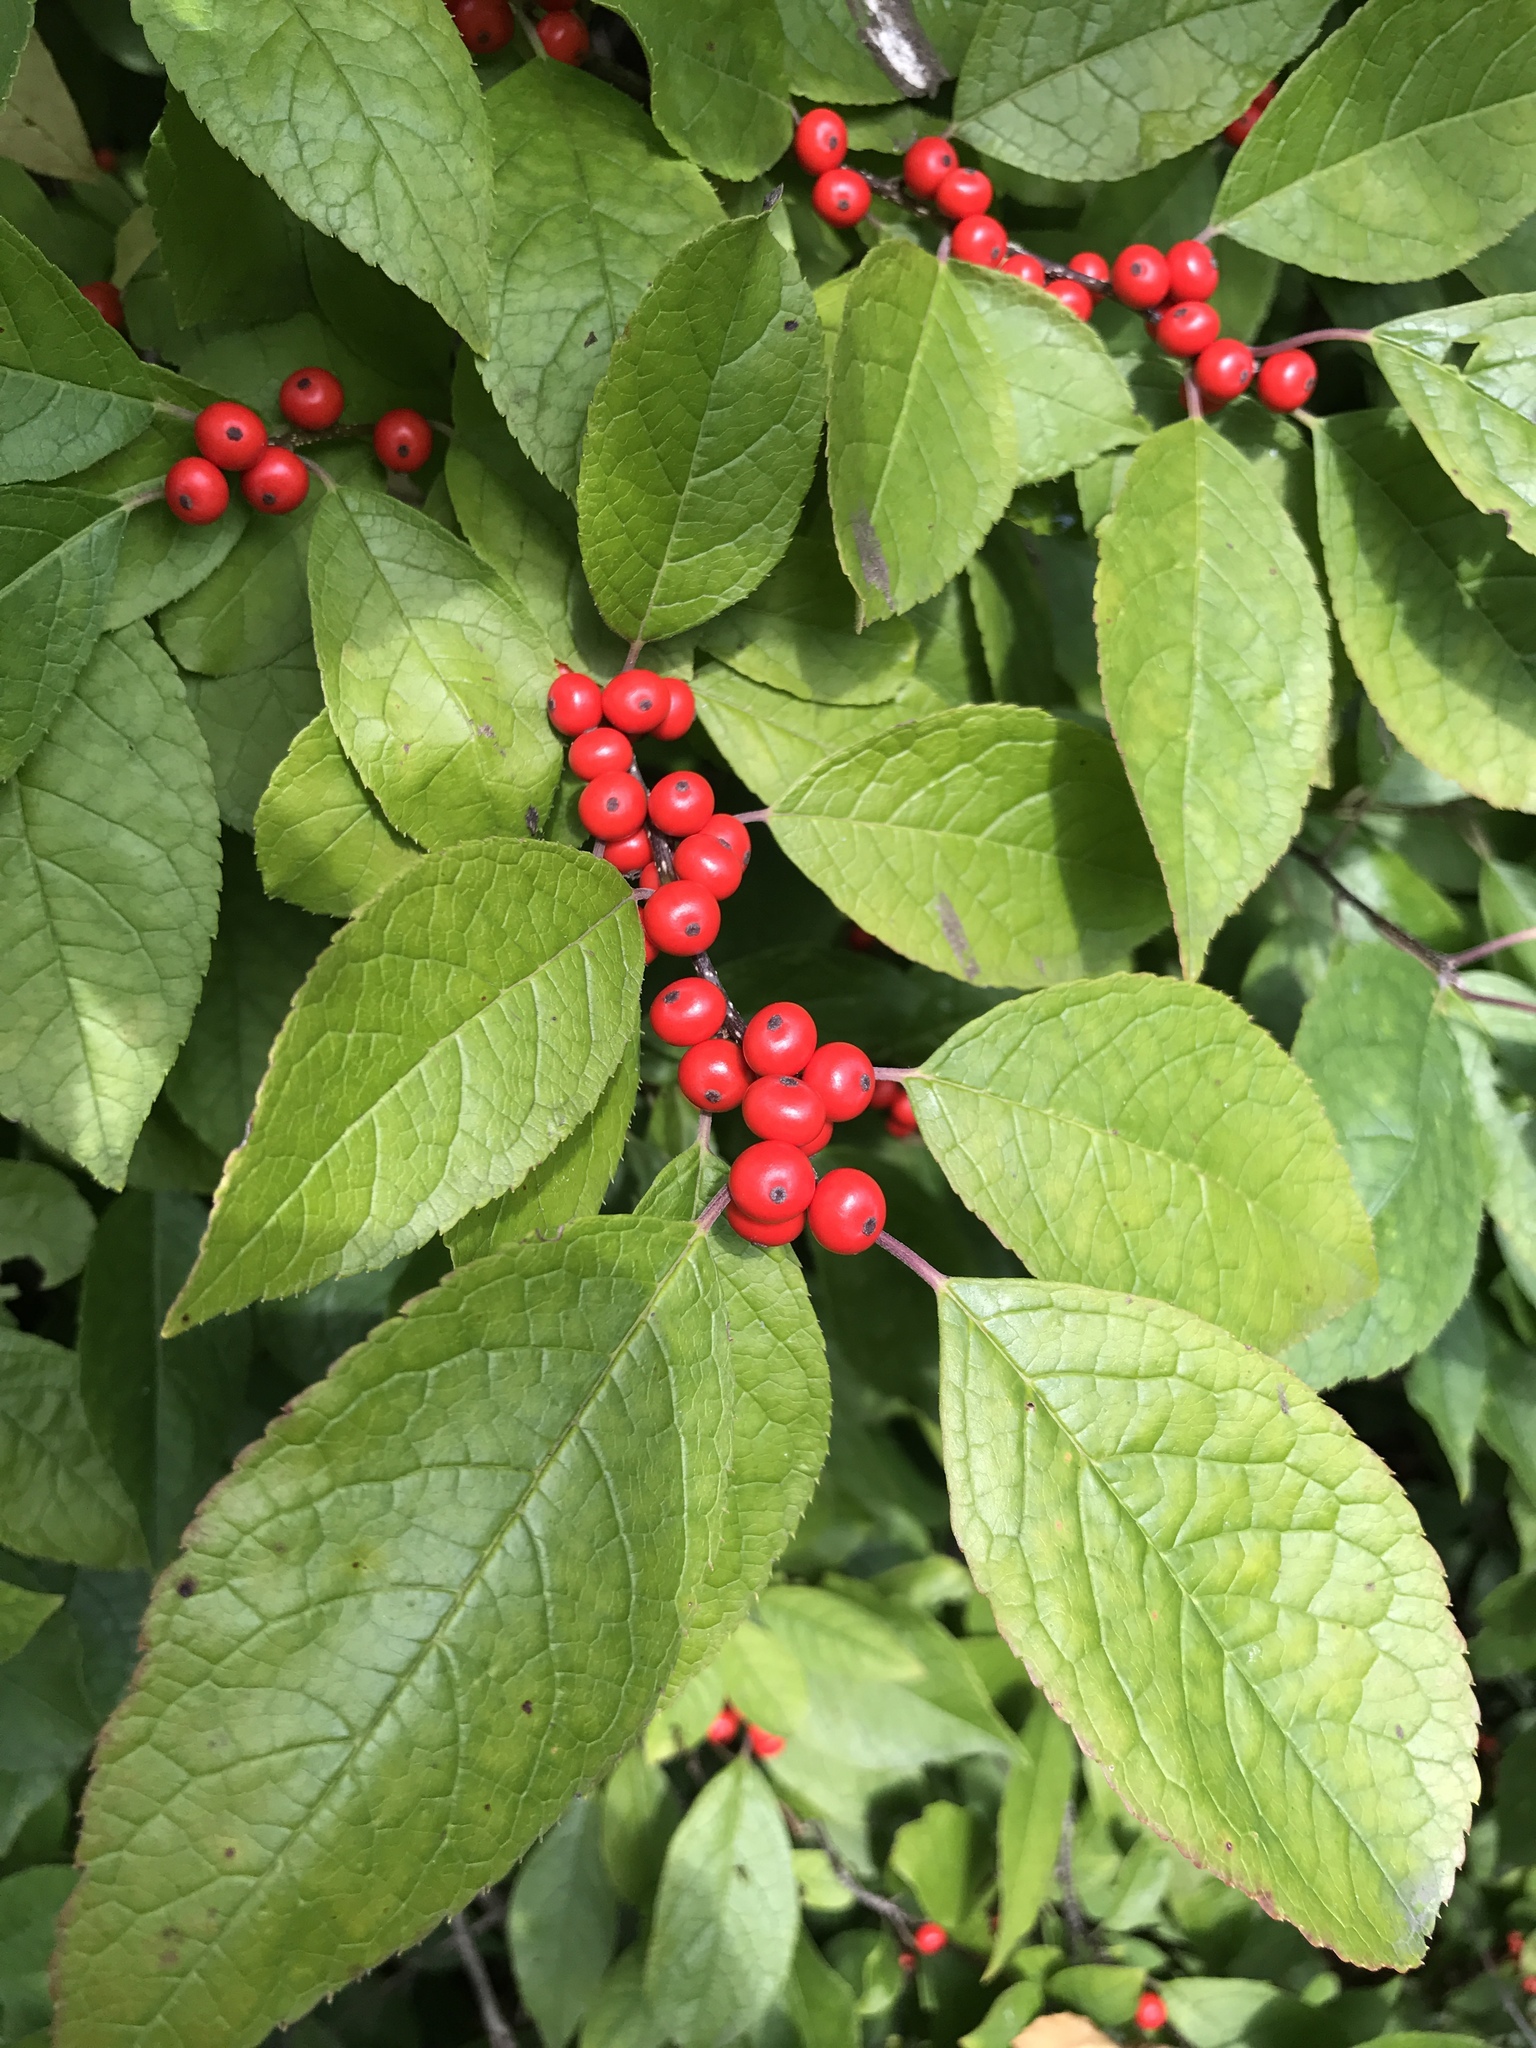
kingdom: Plantae
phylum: Tracheophyta
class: Magnoliopsida
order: Aquifoliales
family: Aquifoliaceae
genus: Ilex
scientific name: Ilex verticillata
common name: Virginia winterberry
